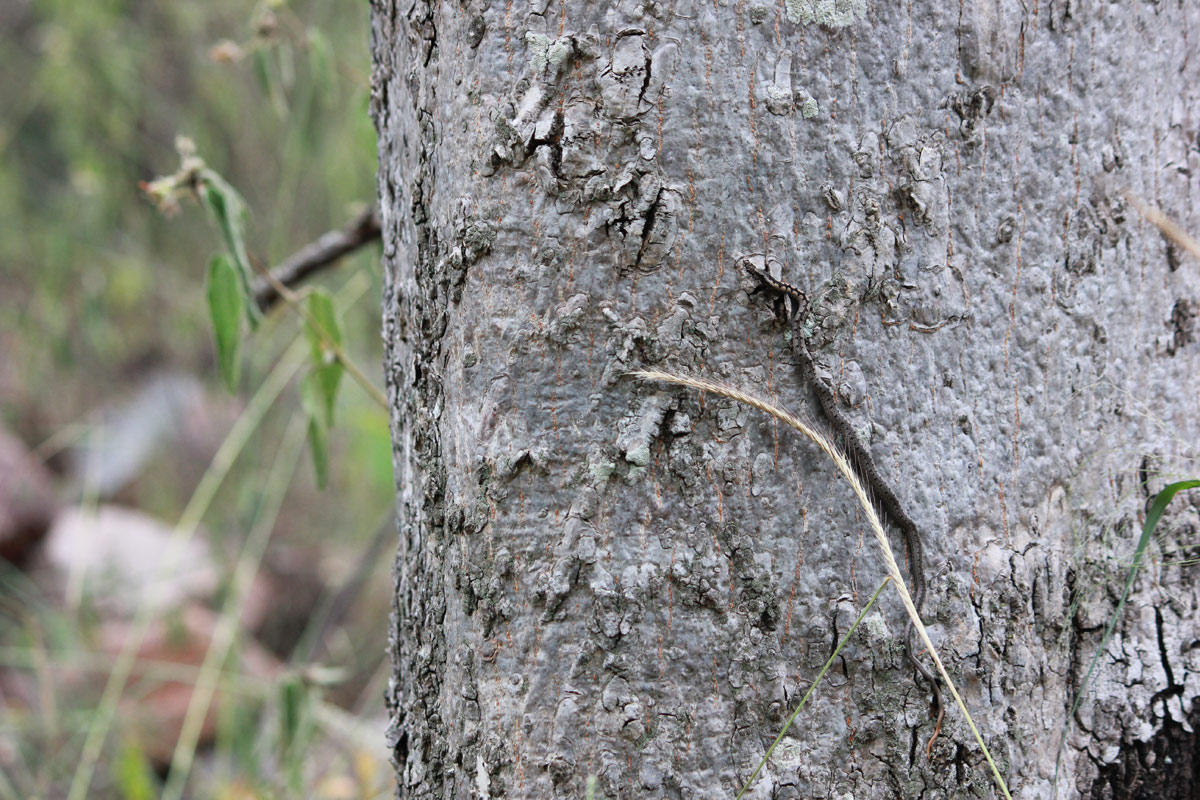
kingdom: Animalia
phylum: Chordata
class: Squamata
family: Psammophiidae
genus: Hemirhagerrhis
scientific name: Hemirhagerrhis nototaenia
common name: Mopane snake
